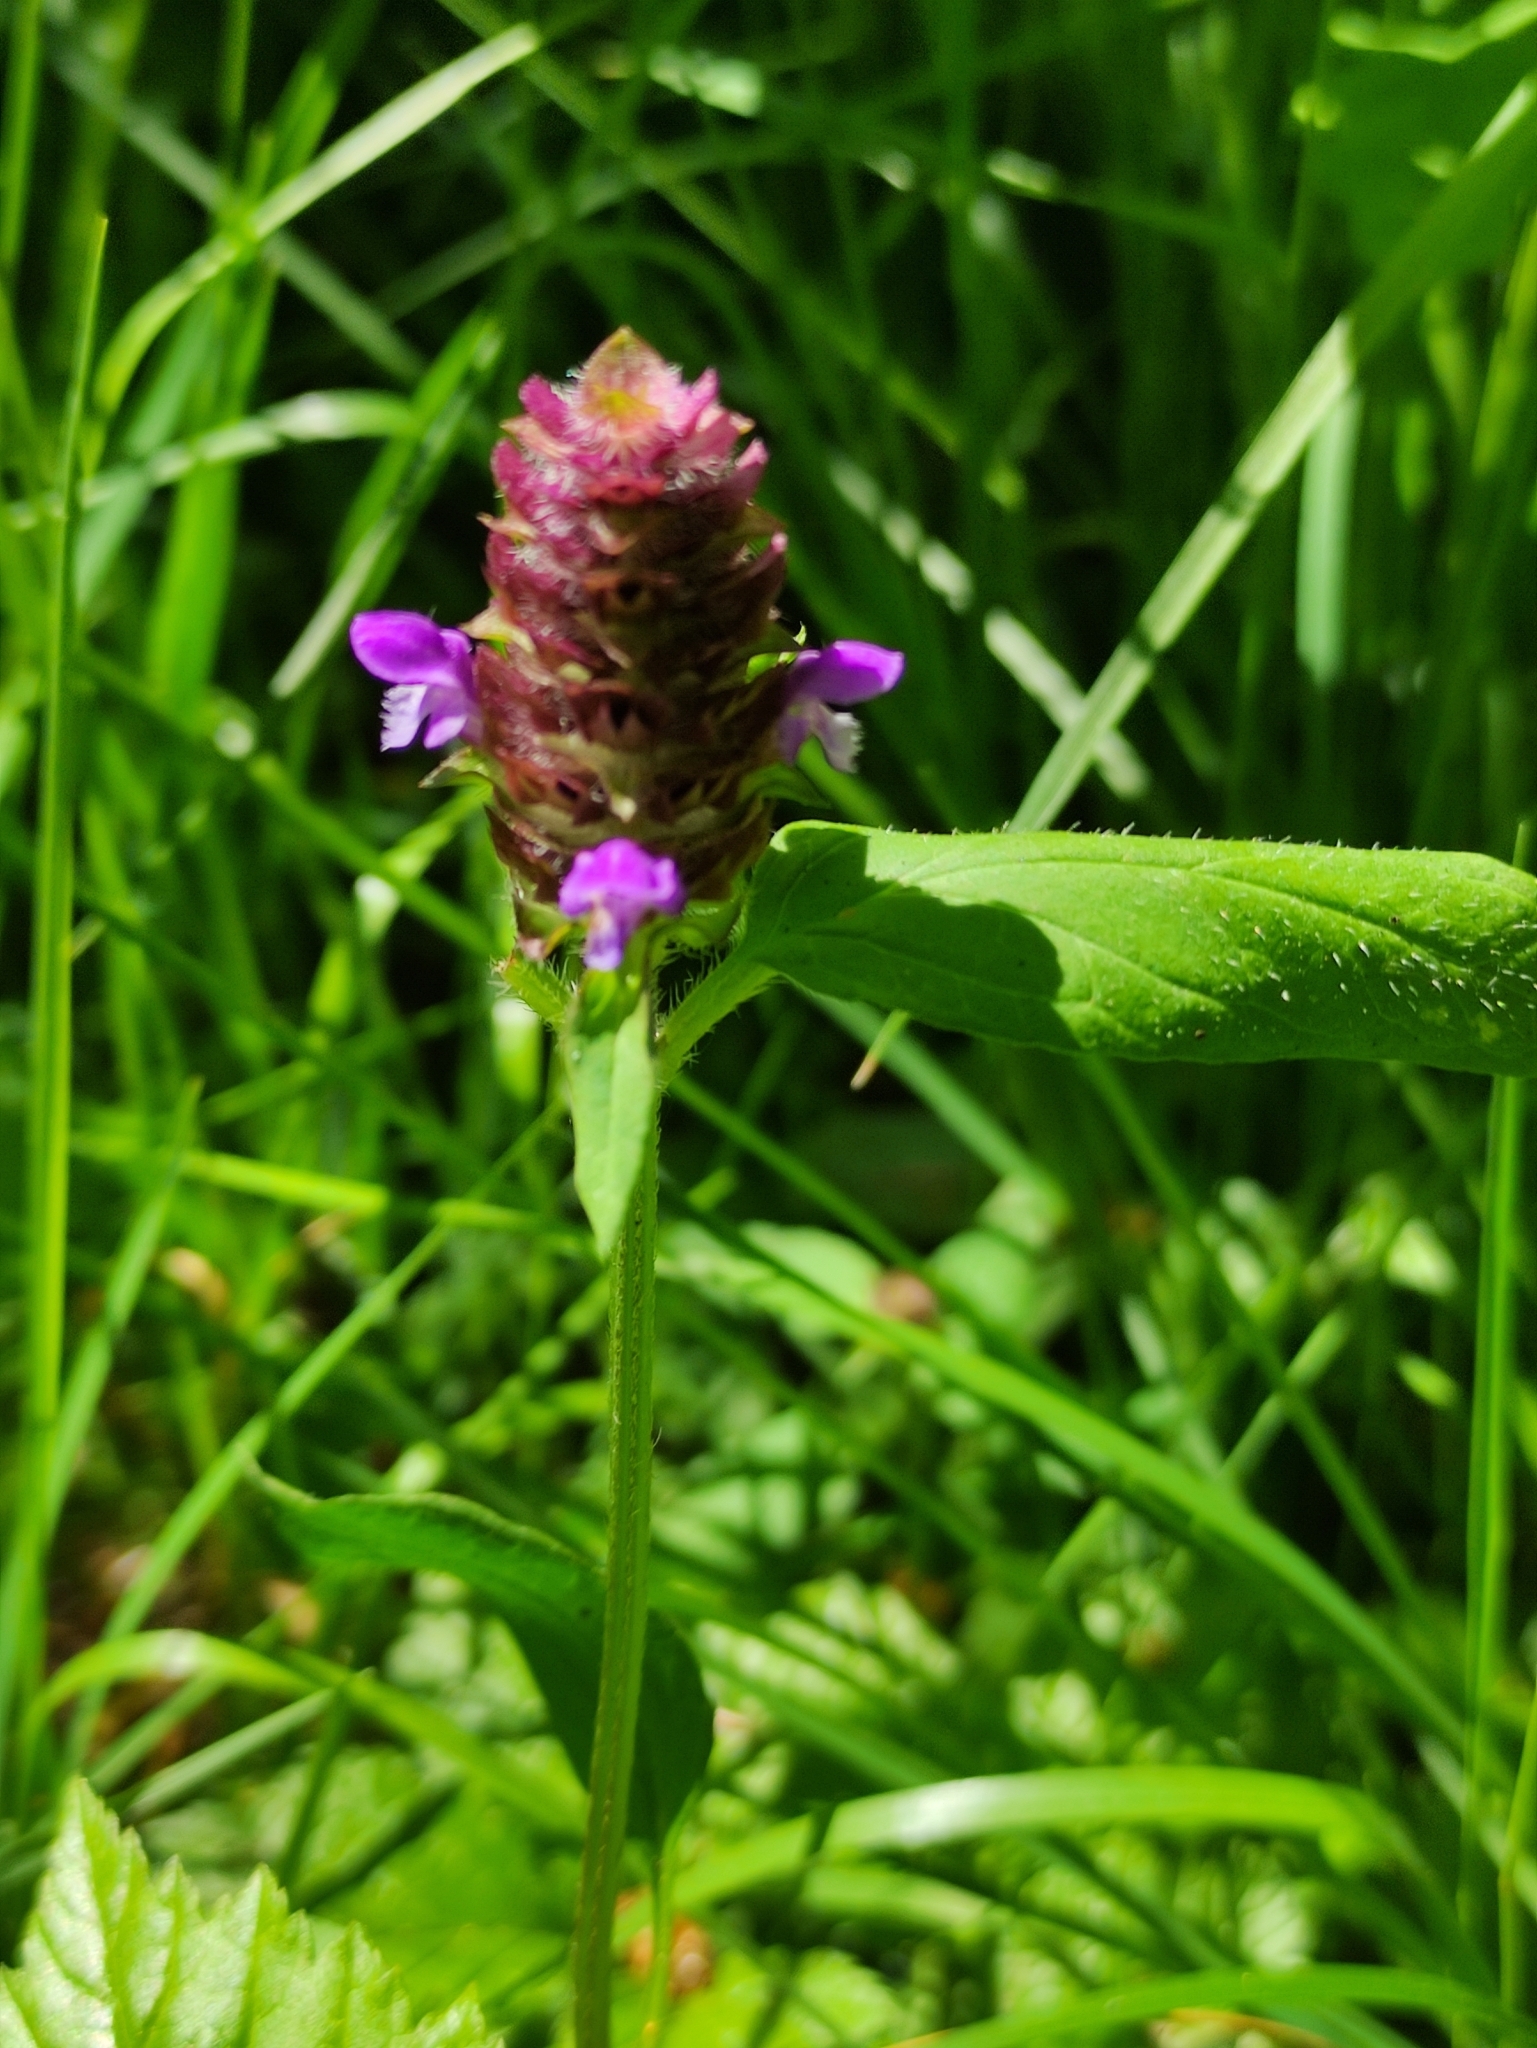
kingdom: Plantae
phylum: Tracheophyta
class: Magnoliopsida
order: Lamiales
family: Lamiaceae
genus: Prunella
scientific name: Prunella vulgaris
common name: Heal-all
